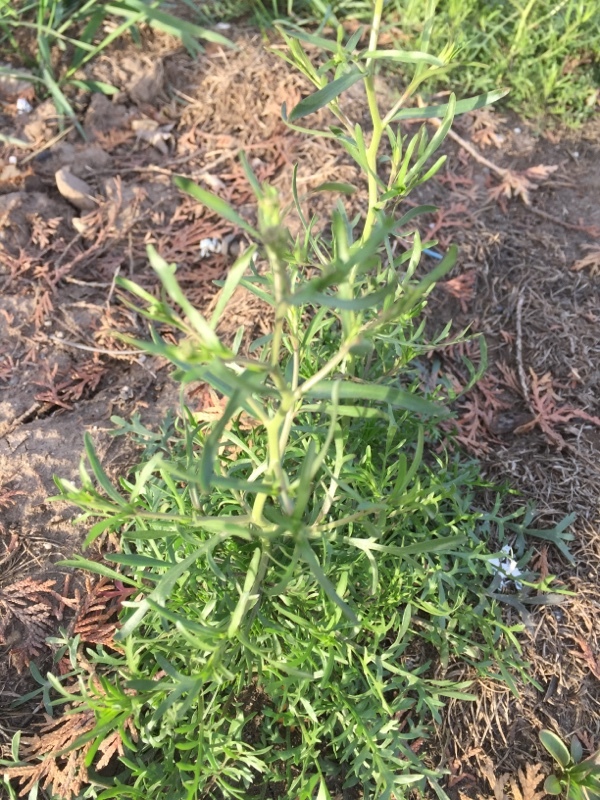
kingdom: Plantae
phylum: Tracheophyta
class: Magnoliopsida
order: Brassicales
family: Brassicaceae
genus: Lepidium
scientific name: Lepidium ruderale
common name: Narrow-leaved pepperwort
